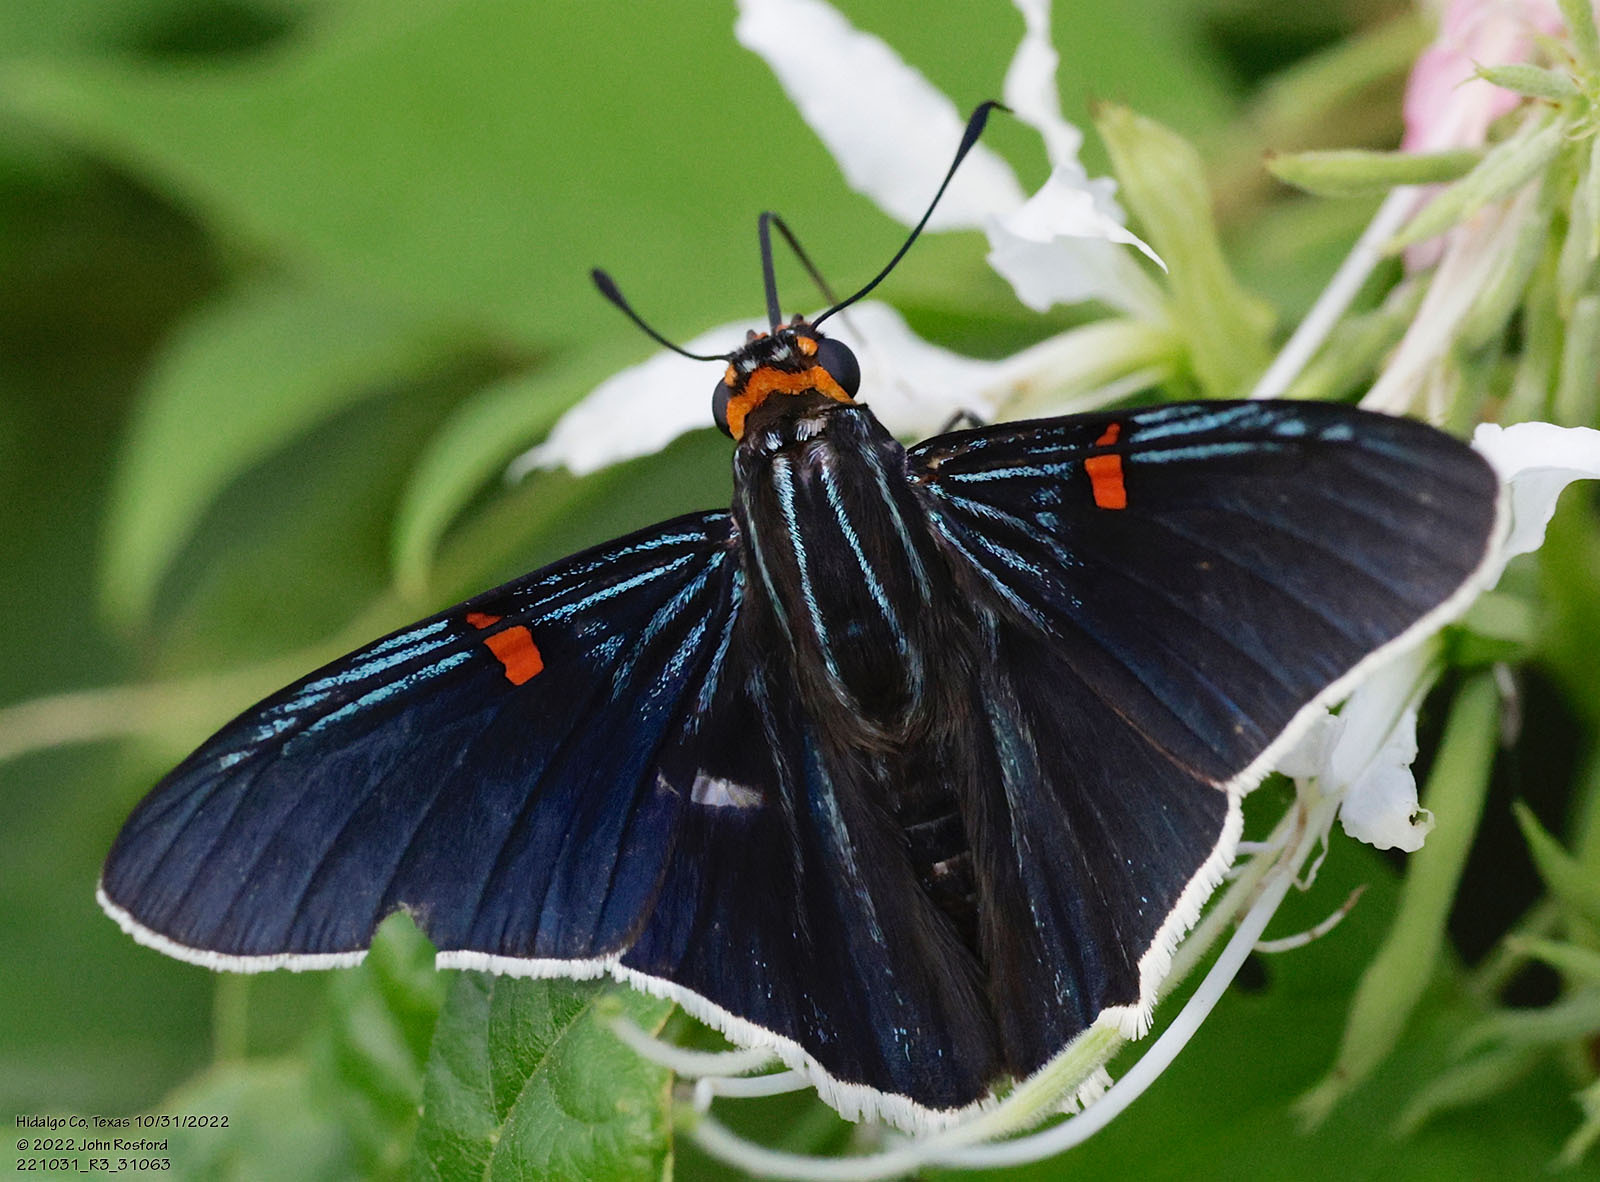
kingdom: Animalia
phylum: Arthropoda
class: Insecta
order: Lepidoptera
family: Hesperiidae
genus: Phocides
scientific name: Phocides lilea
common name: Guava skipper
